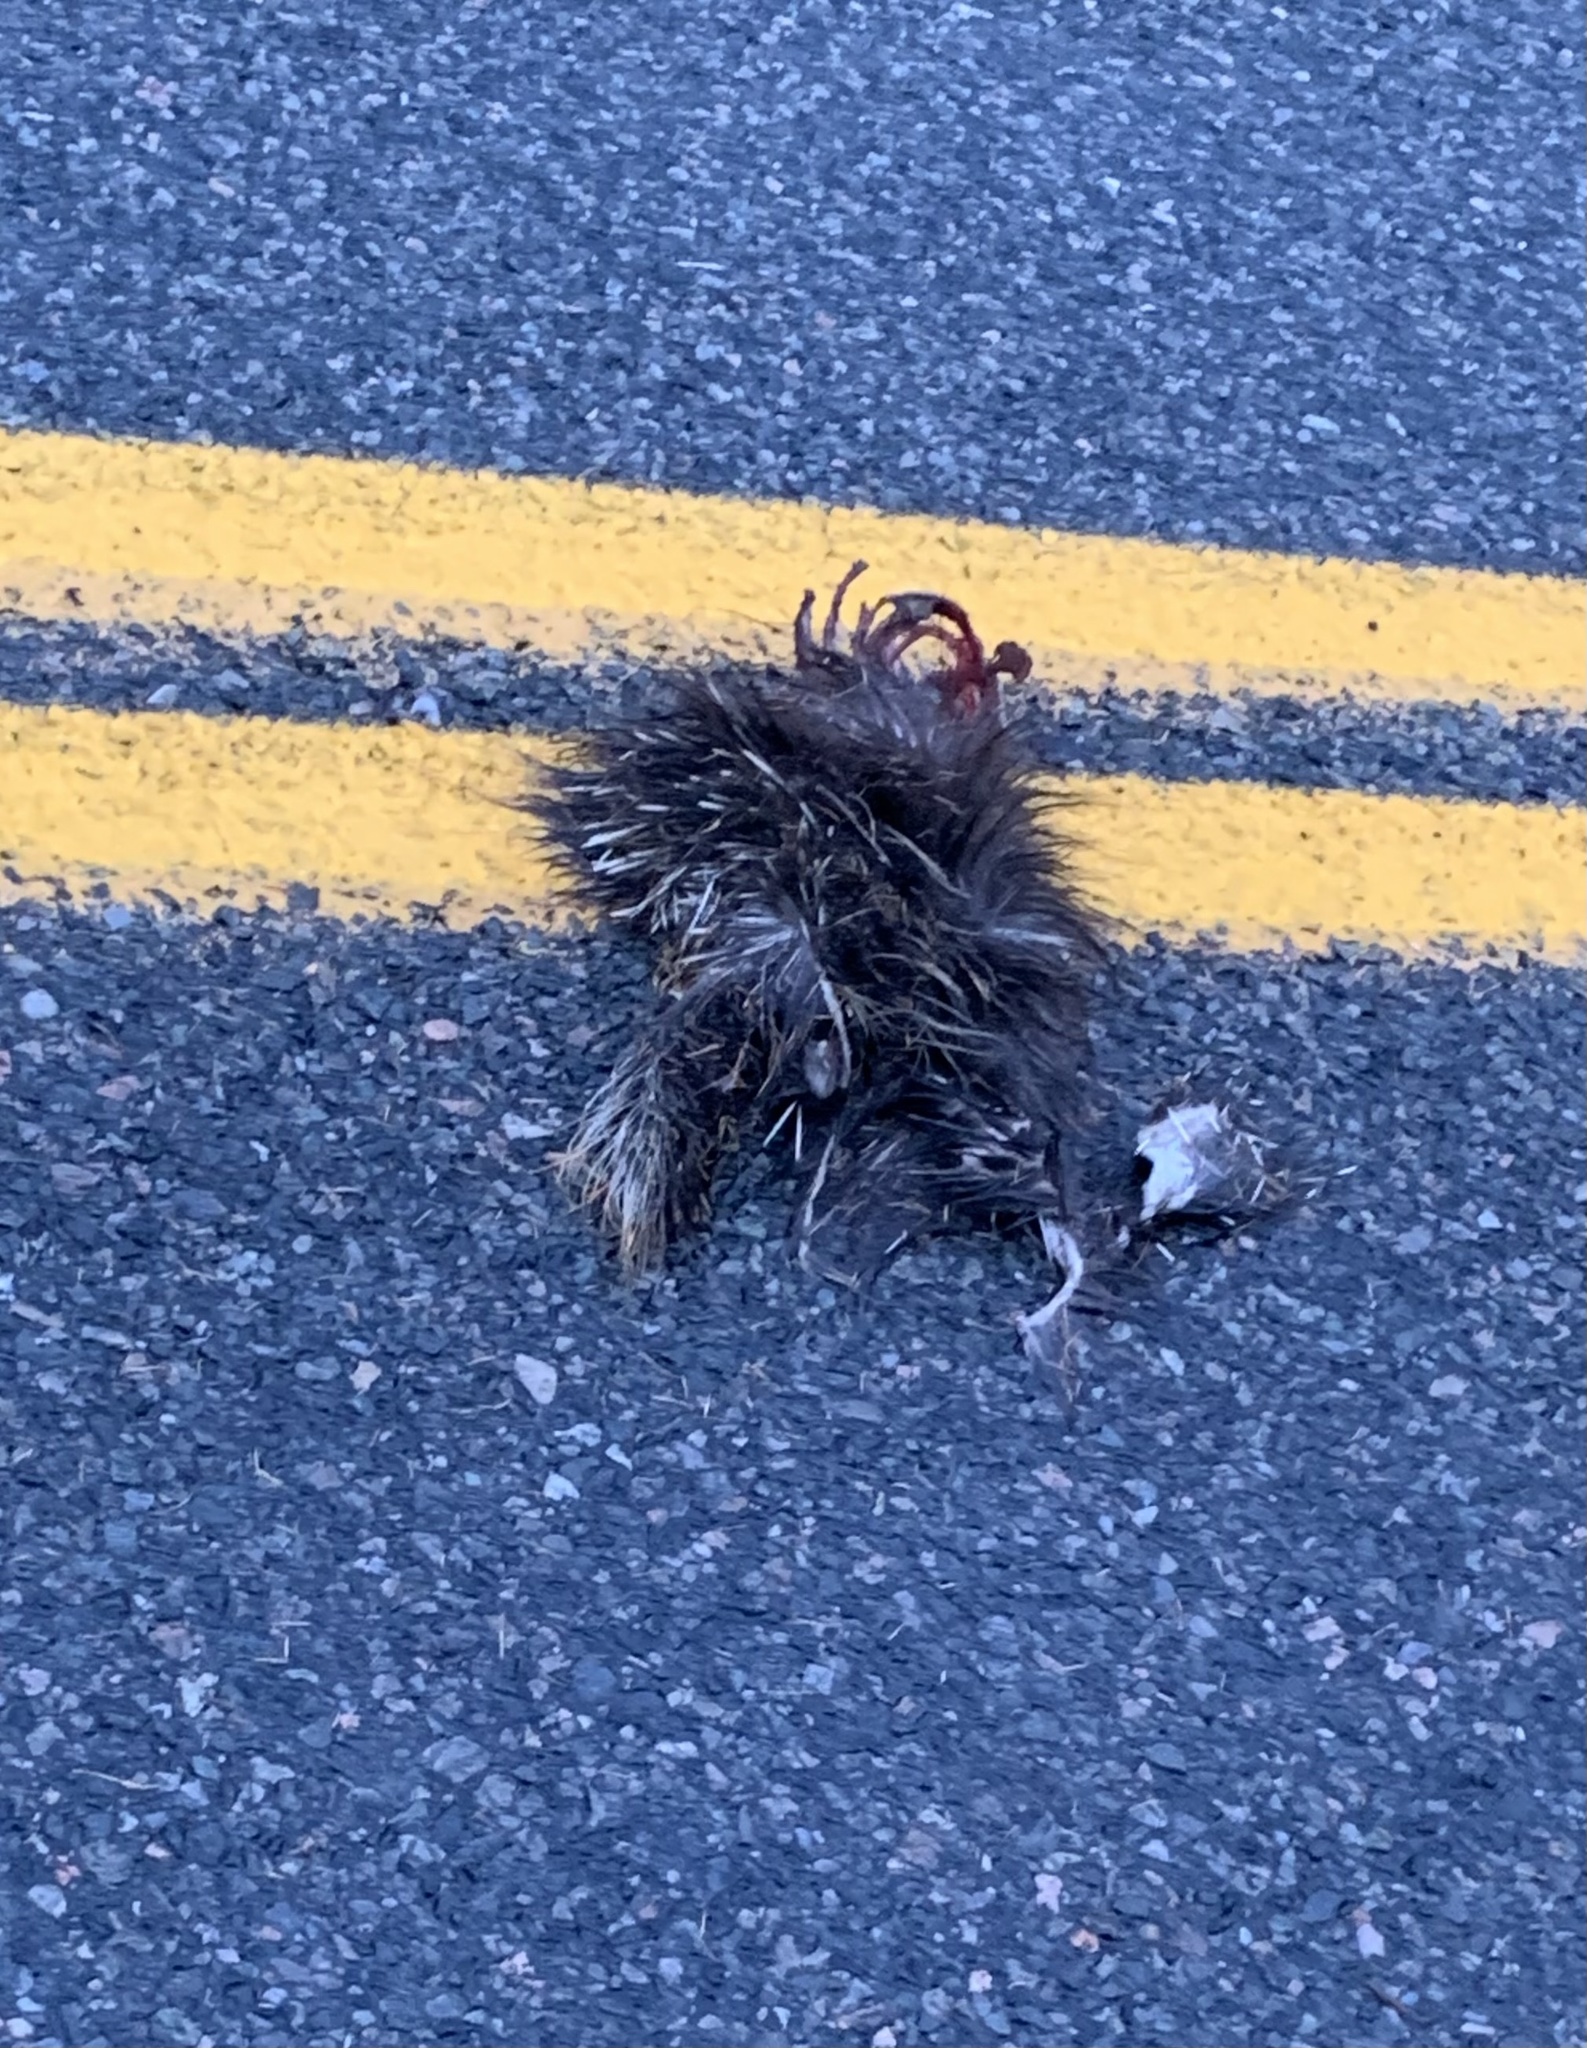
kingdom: Animalia
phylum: Chordata
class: Mammalia
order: Rodentia
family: Erethizontidae
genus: Erethizon
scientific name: Erethizon dorsatus
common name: North american porcupine
